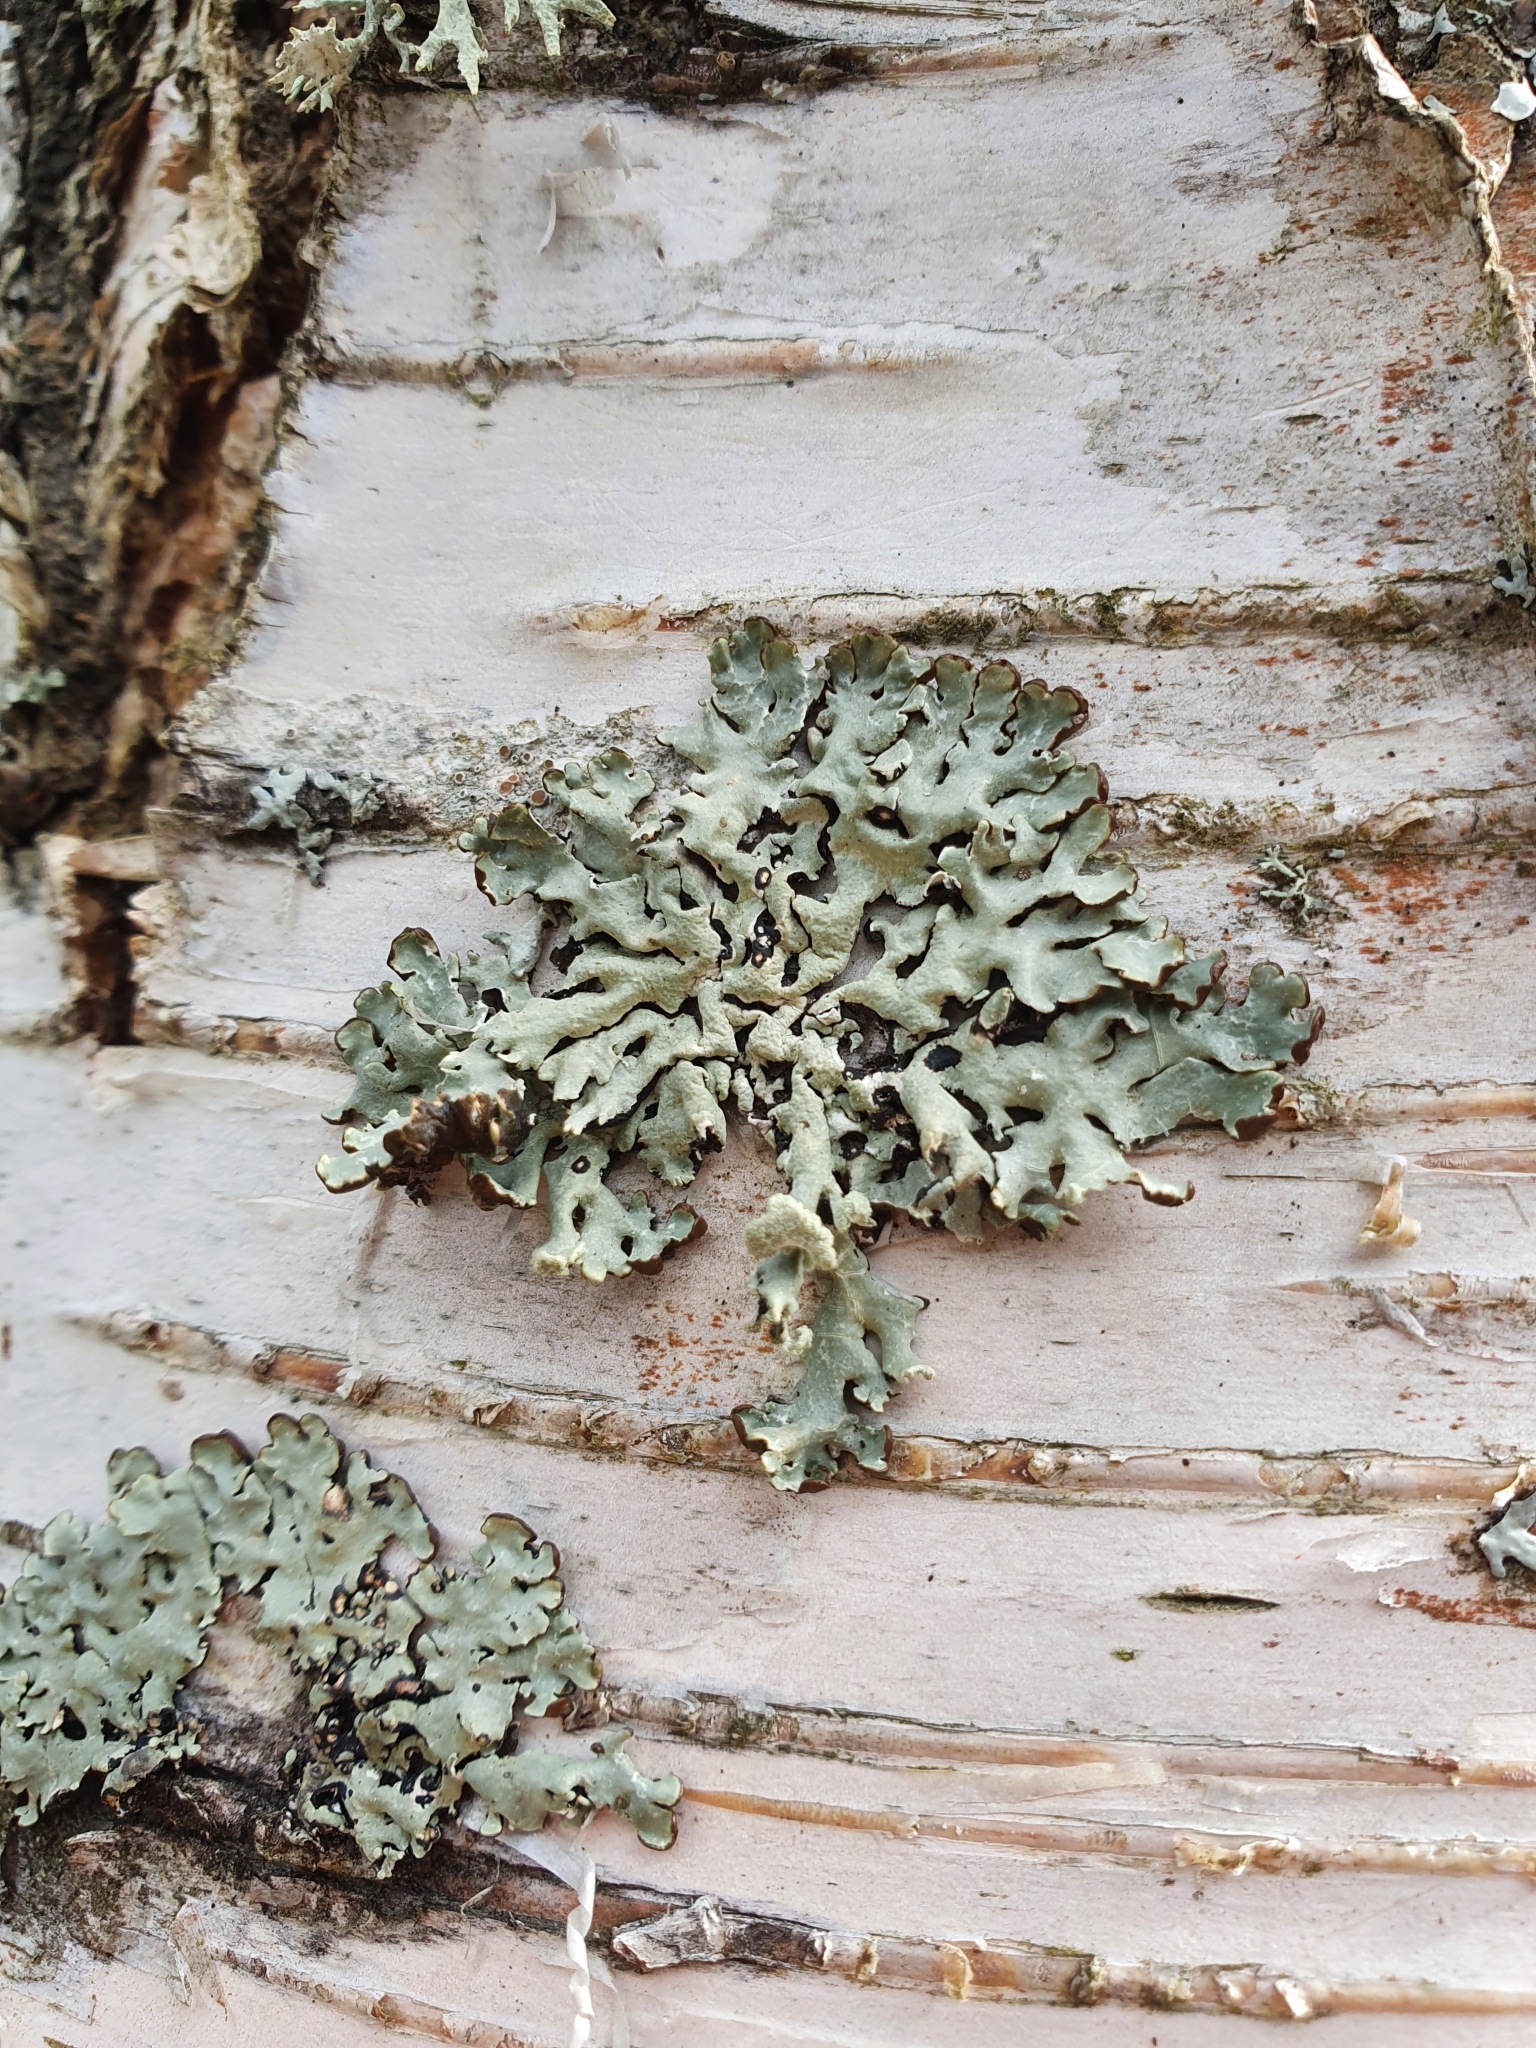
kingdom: Fungi
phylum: Ascomycota
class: Lecanoromycetes
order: Lecanorales
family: Parmeliaceae
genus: Hypogymnia
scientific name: Hypogymnia physodes
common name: Dark crottle
